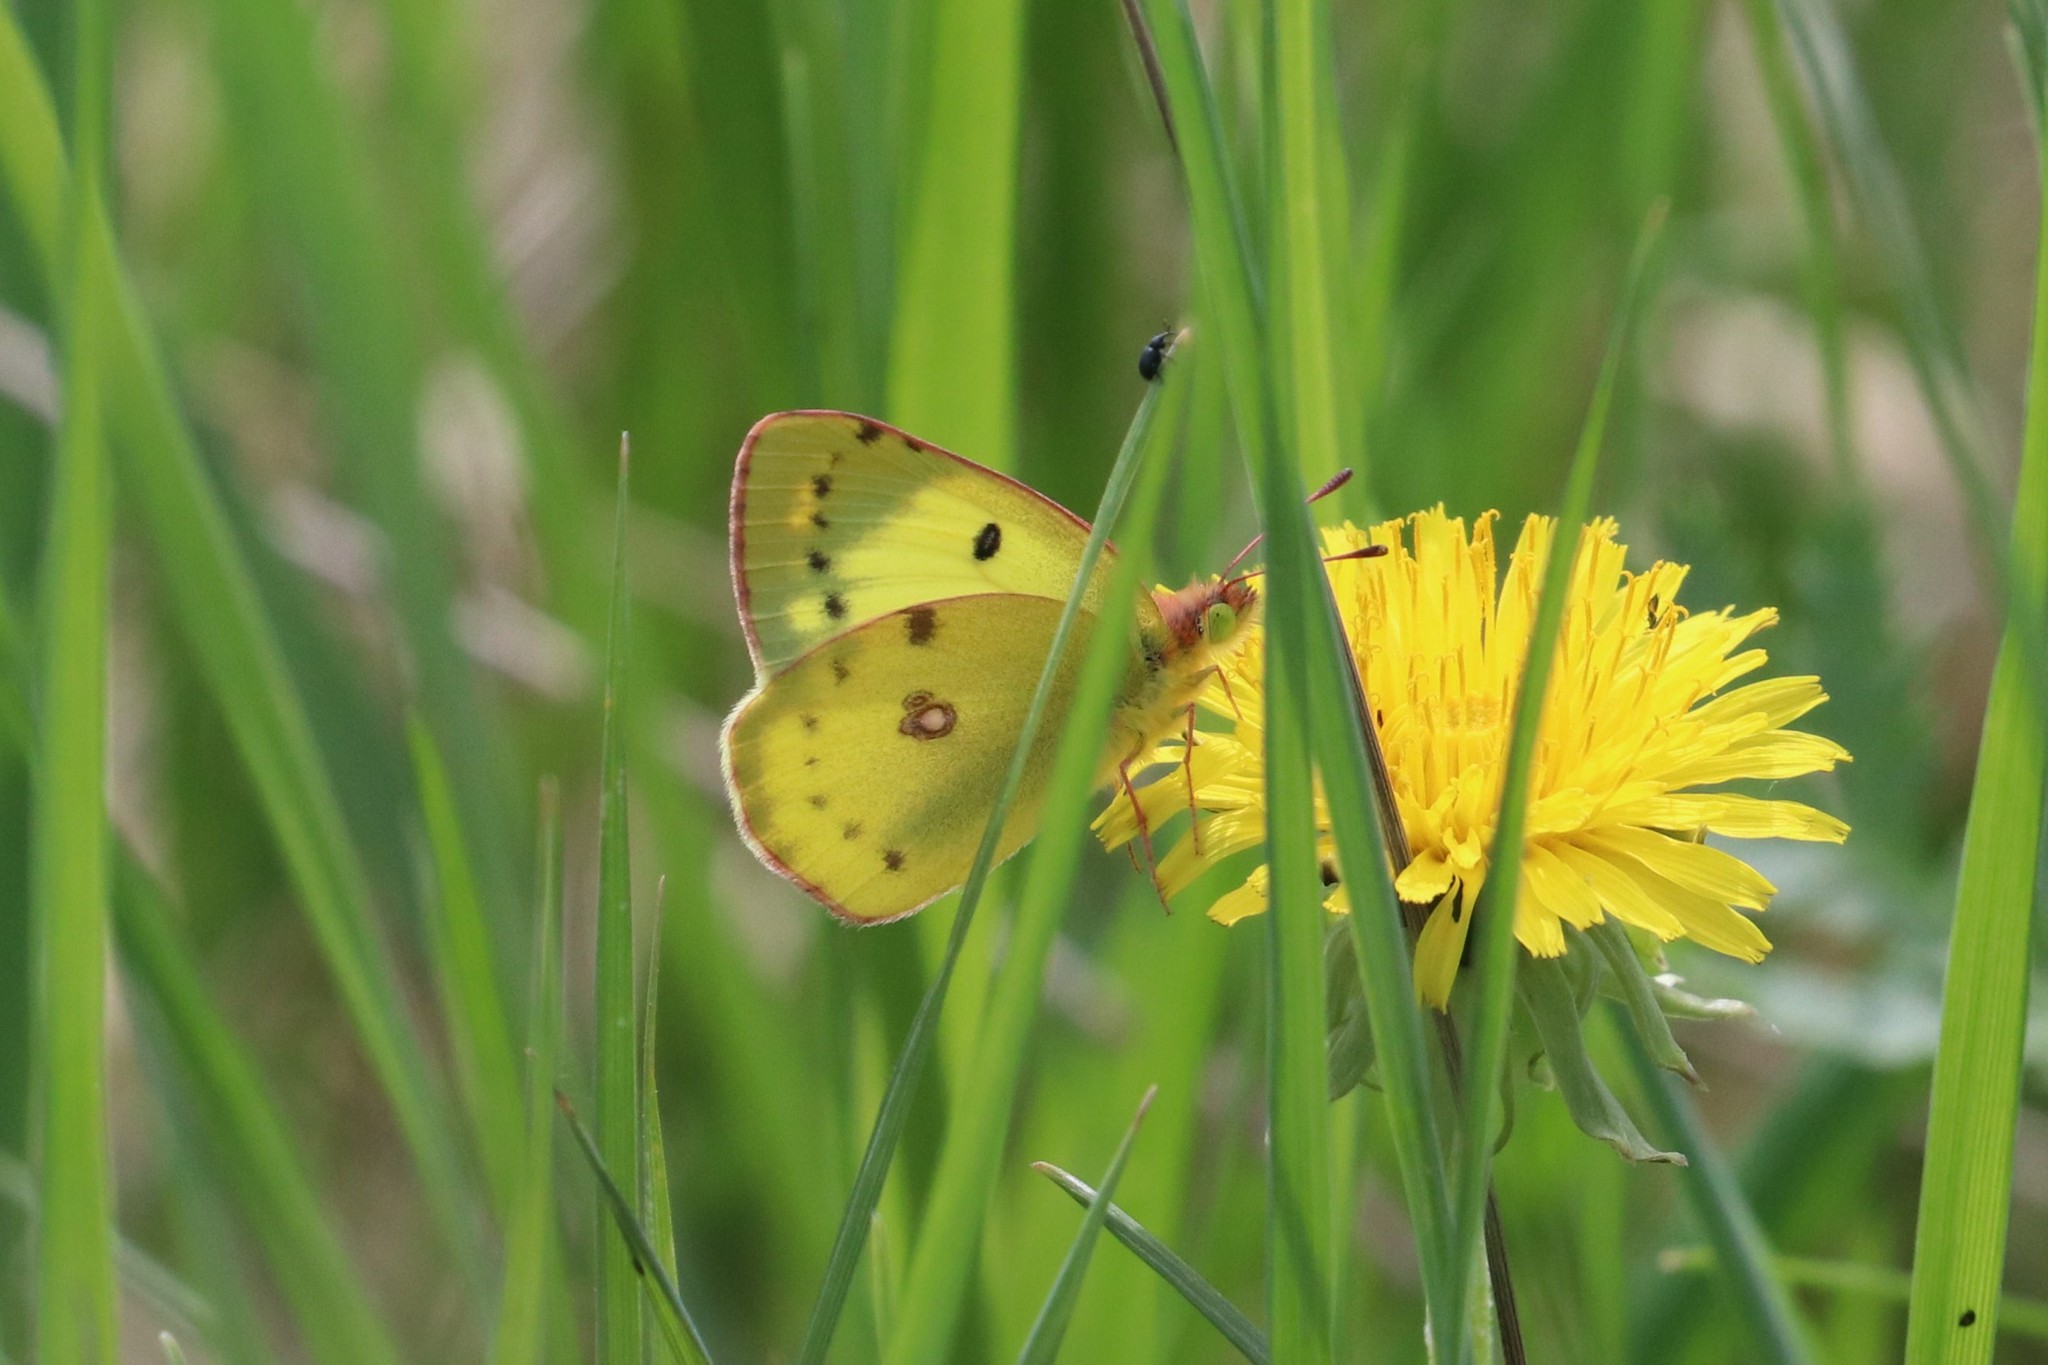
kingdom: Animalia
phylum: Arthropoda
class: Insecta
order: Lepidoptera
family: Pieridae
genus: Colias
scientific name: Colias hyale
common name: Pale clouded yellow
